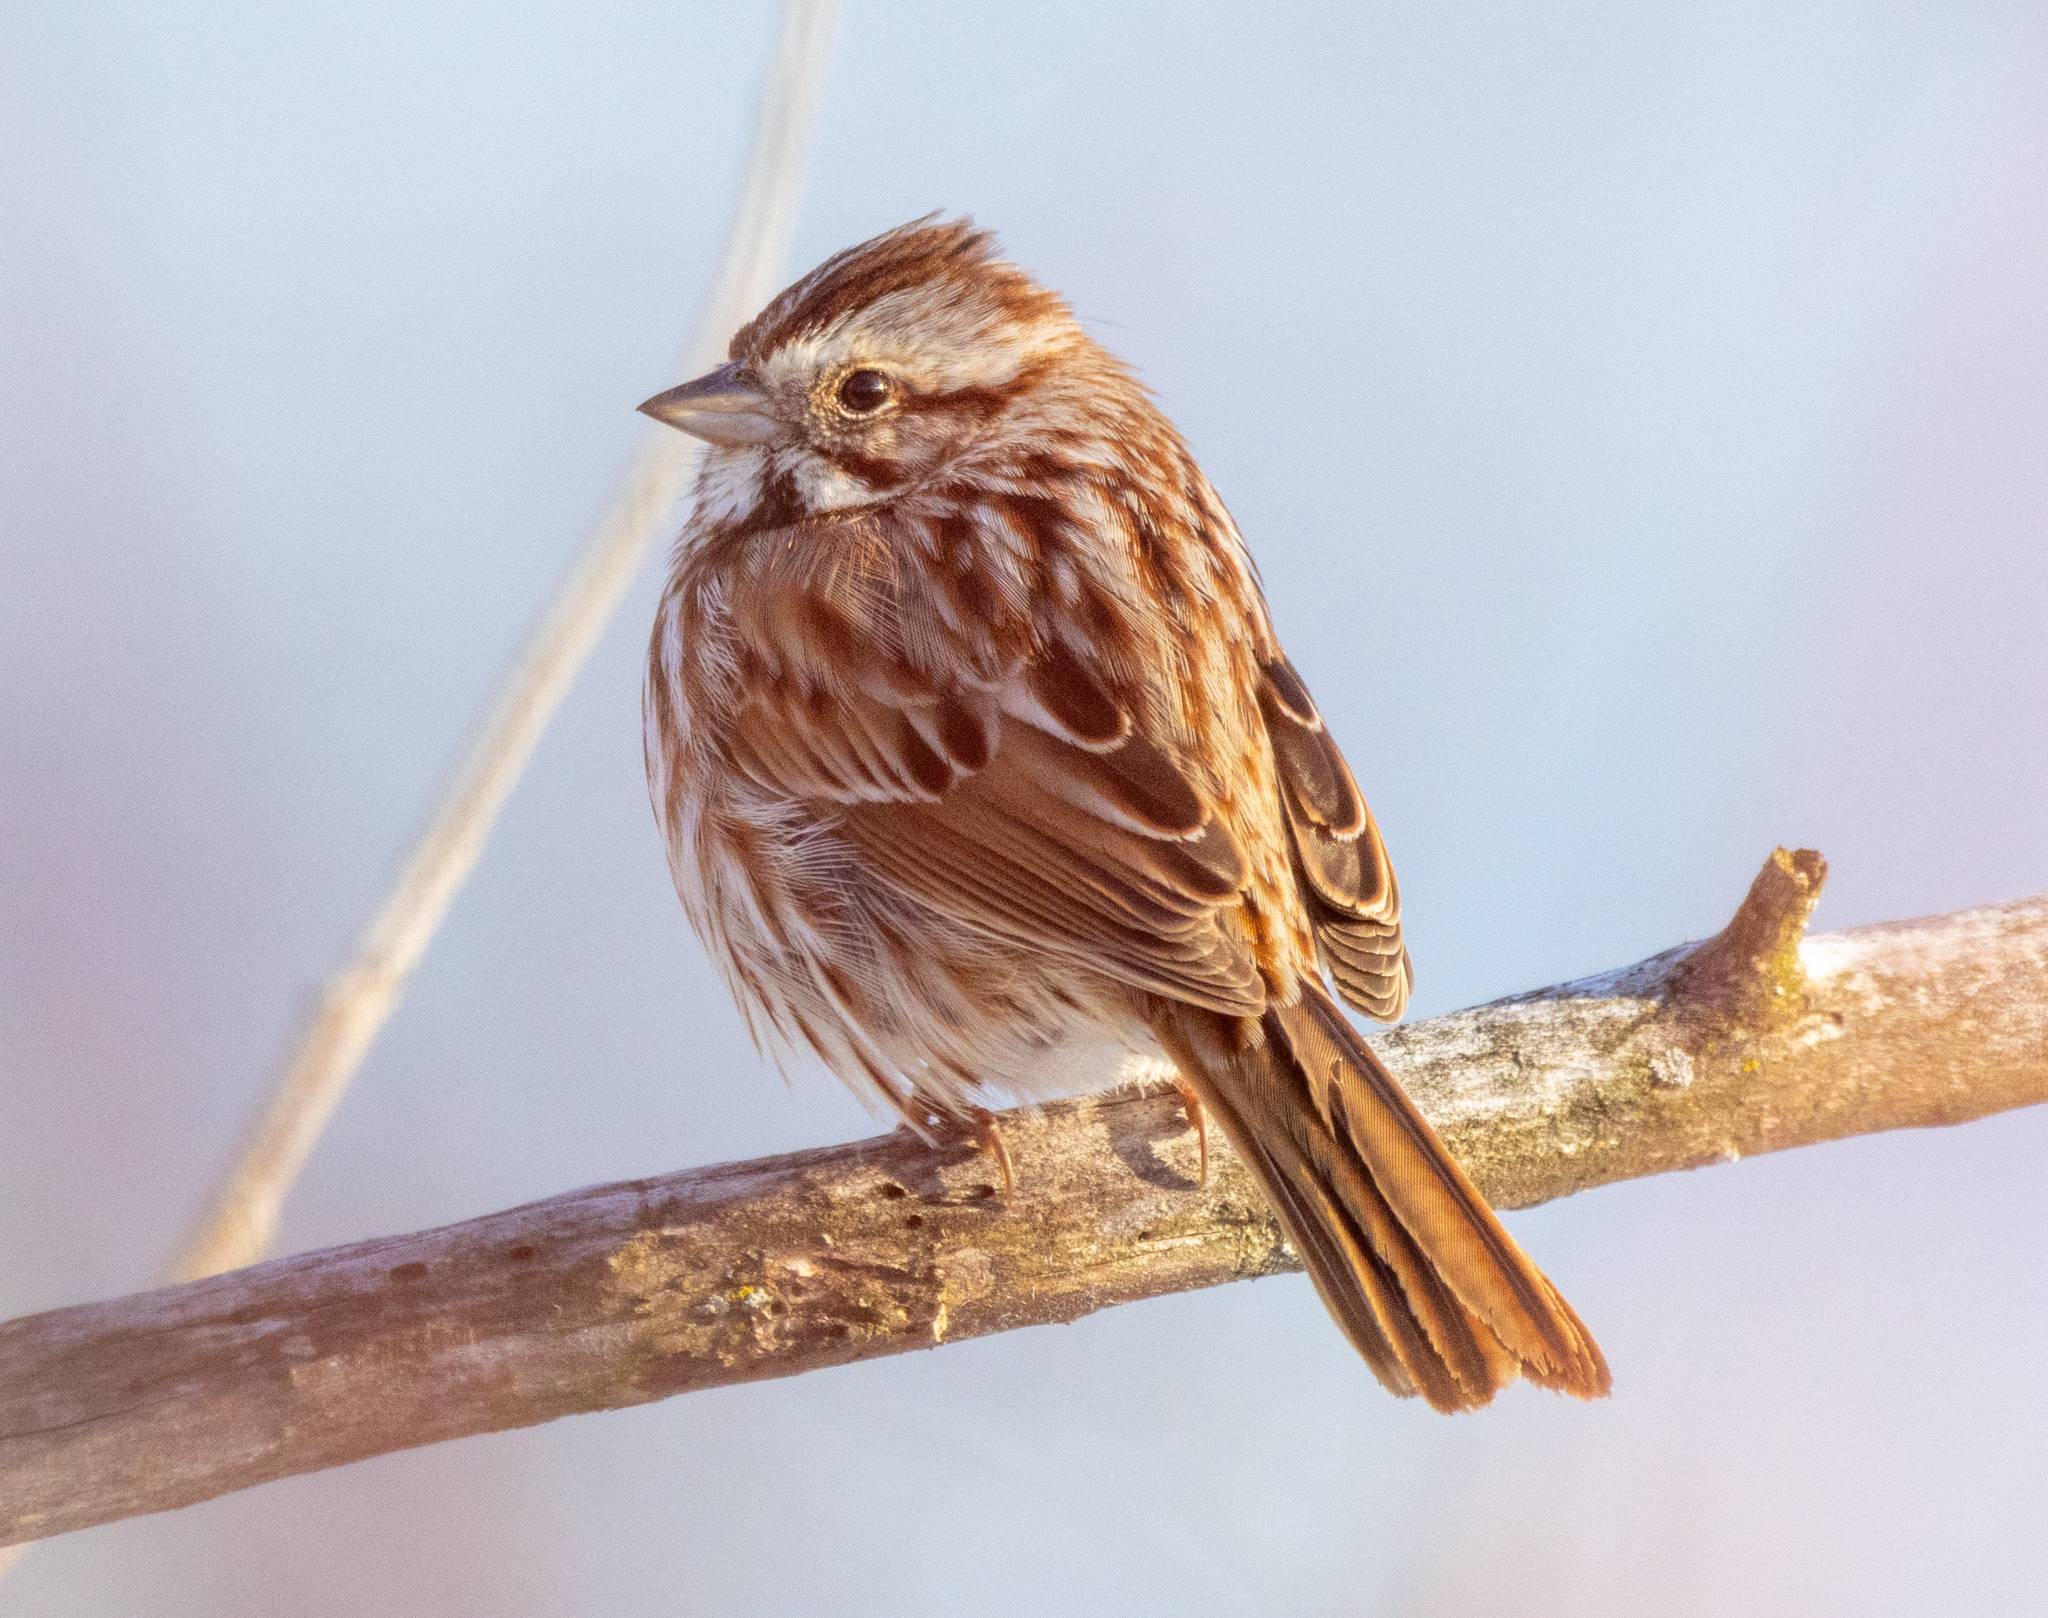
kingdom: Animalia
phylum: Chordata
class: Aves
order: Passeriformes
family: Passerellidae
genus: Melospiza
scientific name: Melospiza melodia
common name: Song sparrow
